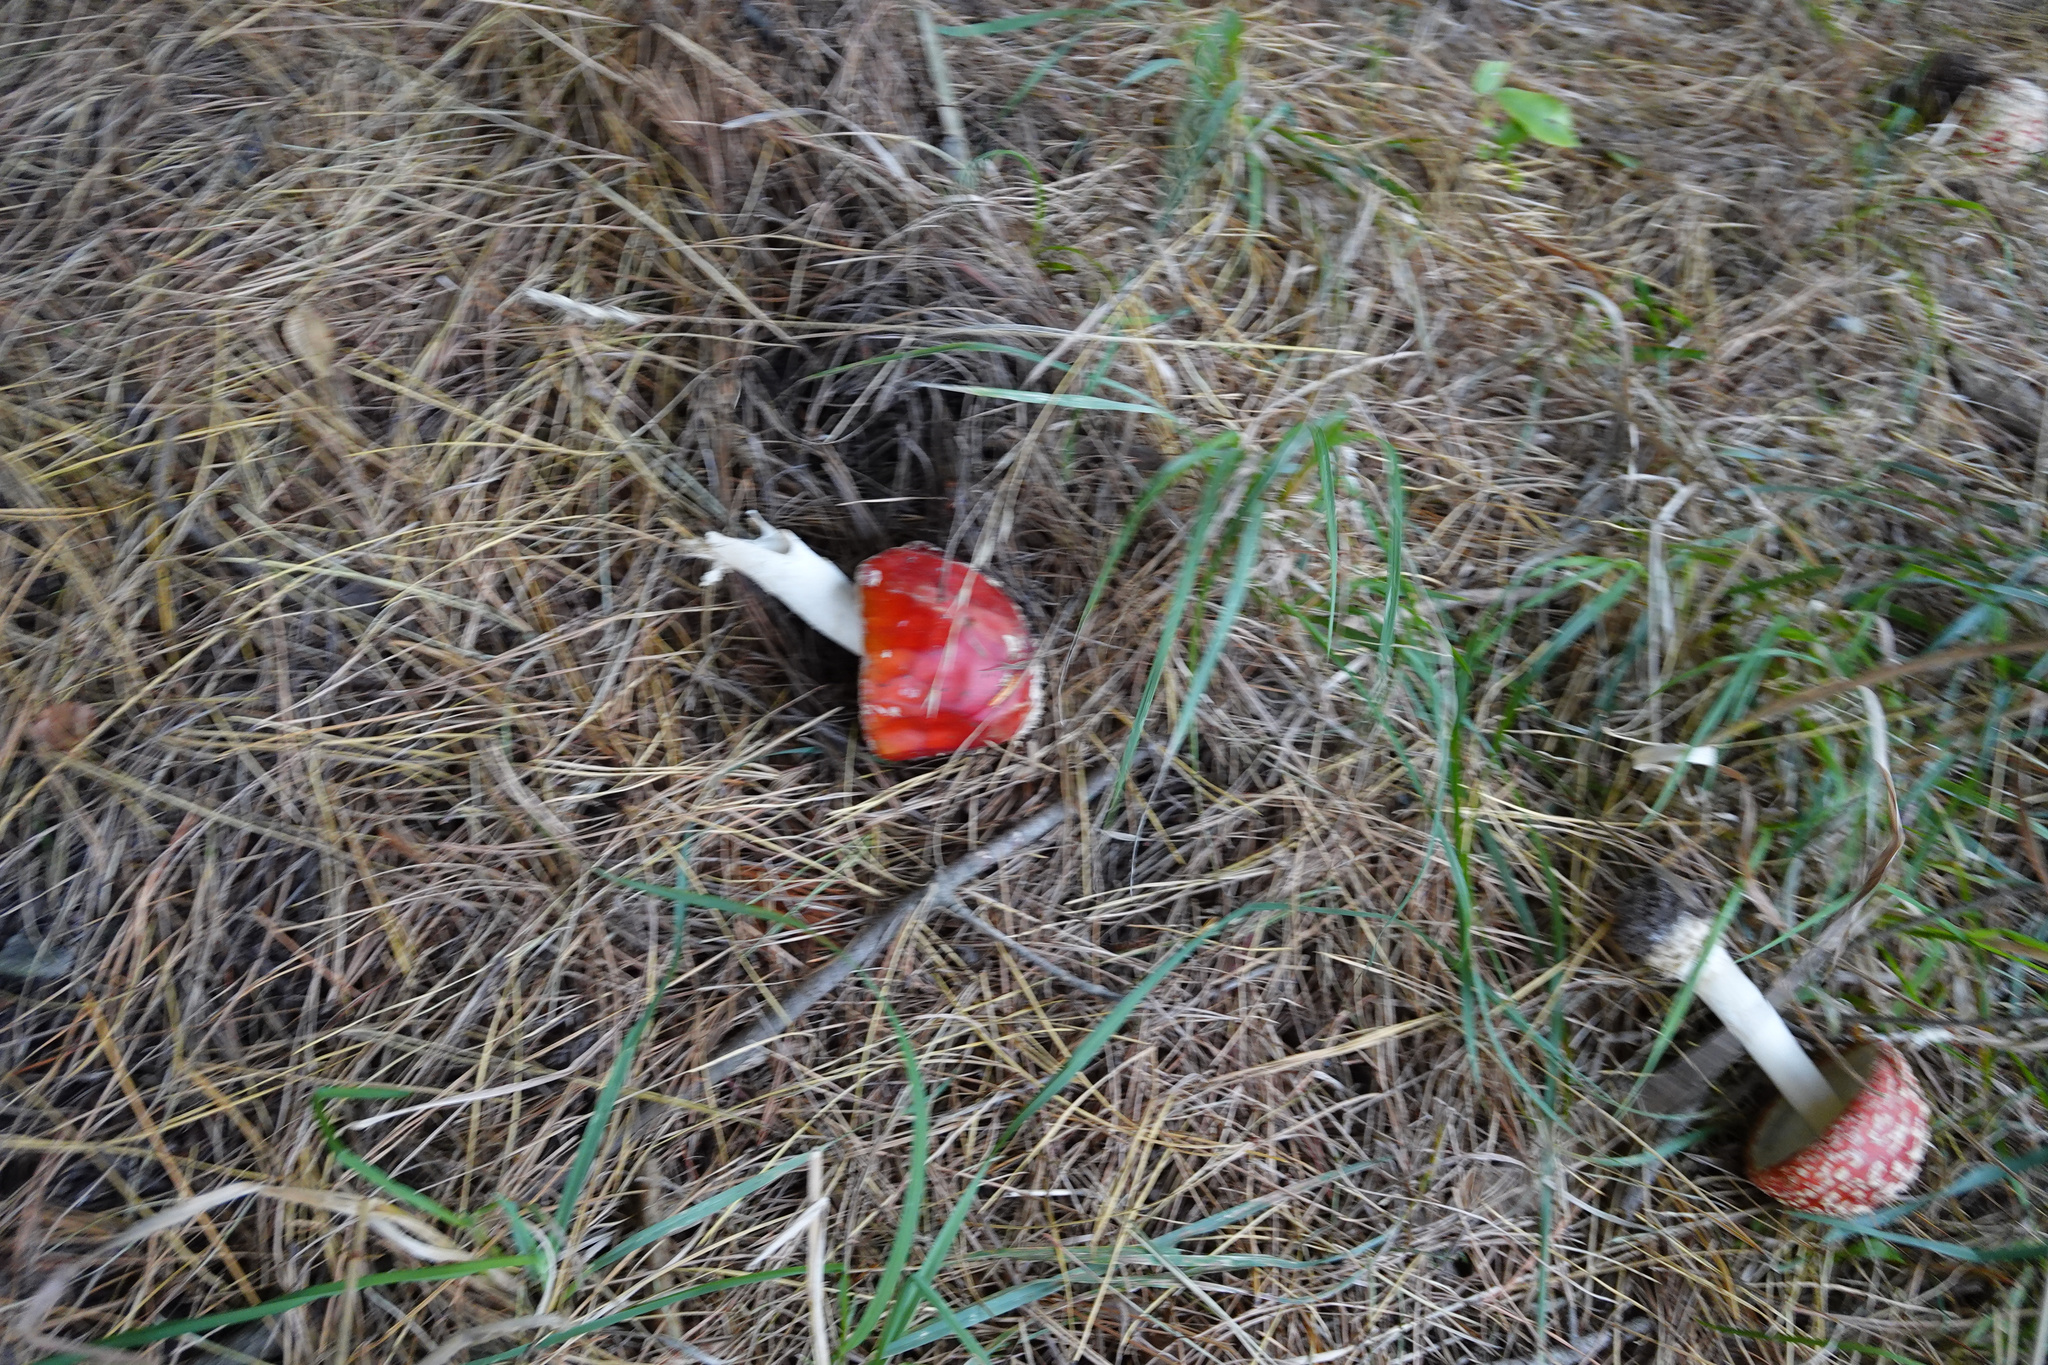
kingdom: Fungi
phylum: Basidiomycota
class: Agaricomycetes
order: Agaricales
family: Amanitaceae
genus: Amanita
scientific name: Amanita muscaria
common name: Fly agaric
